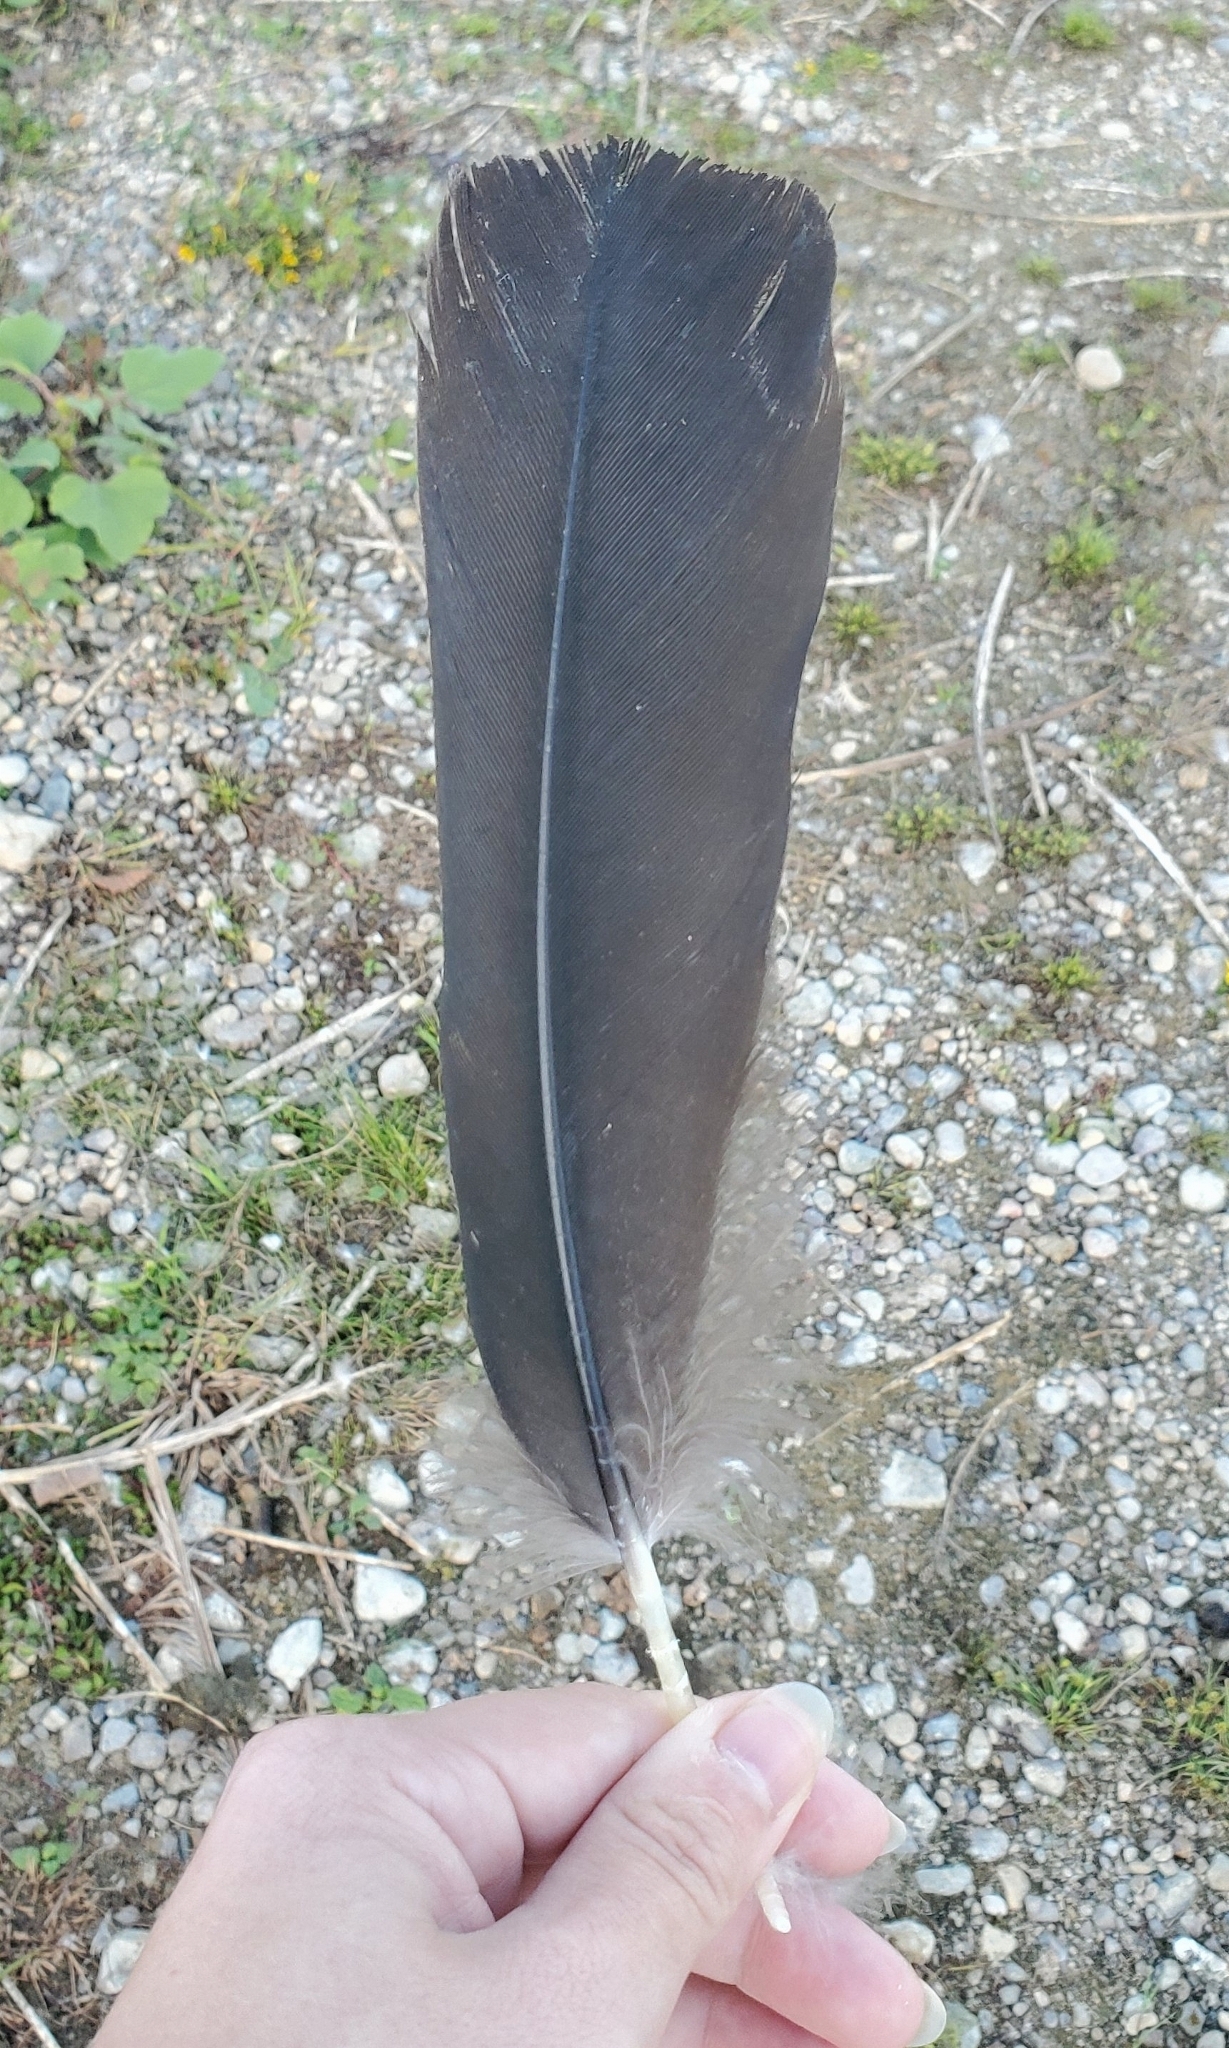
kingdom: Animalia
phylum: Chordata
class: Aves
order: Accipitriformes
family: Cathartidae
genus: Coragyps
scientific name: Coragyps atratus
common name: Black vulture
